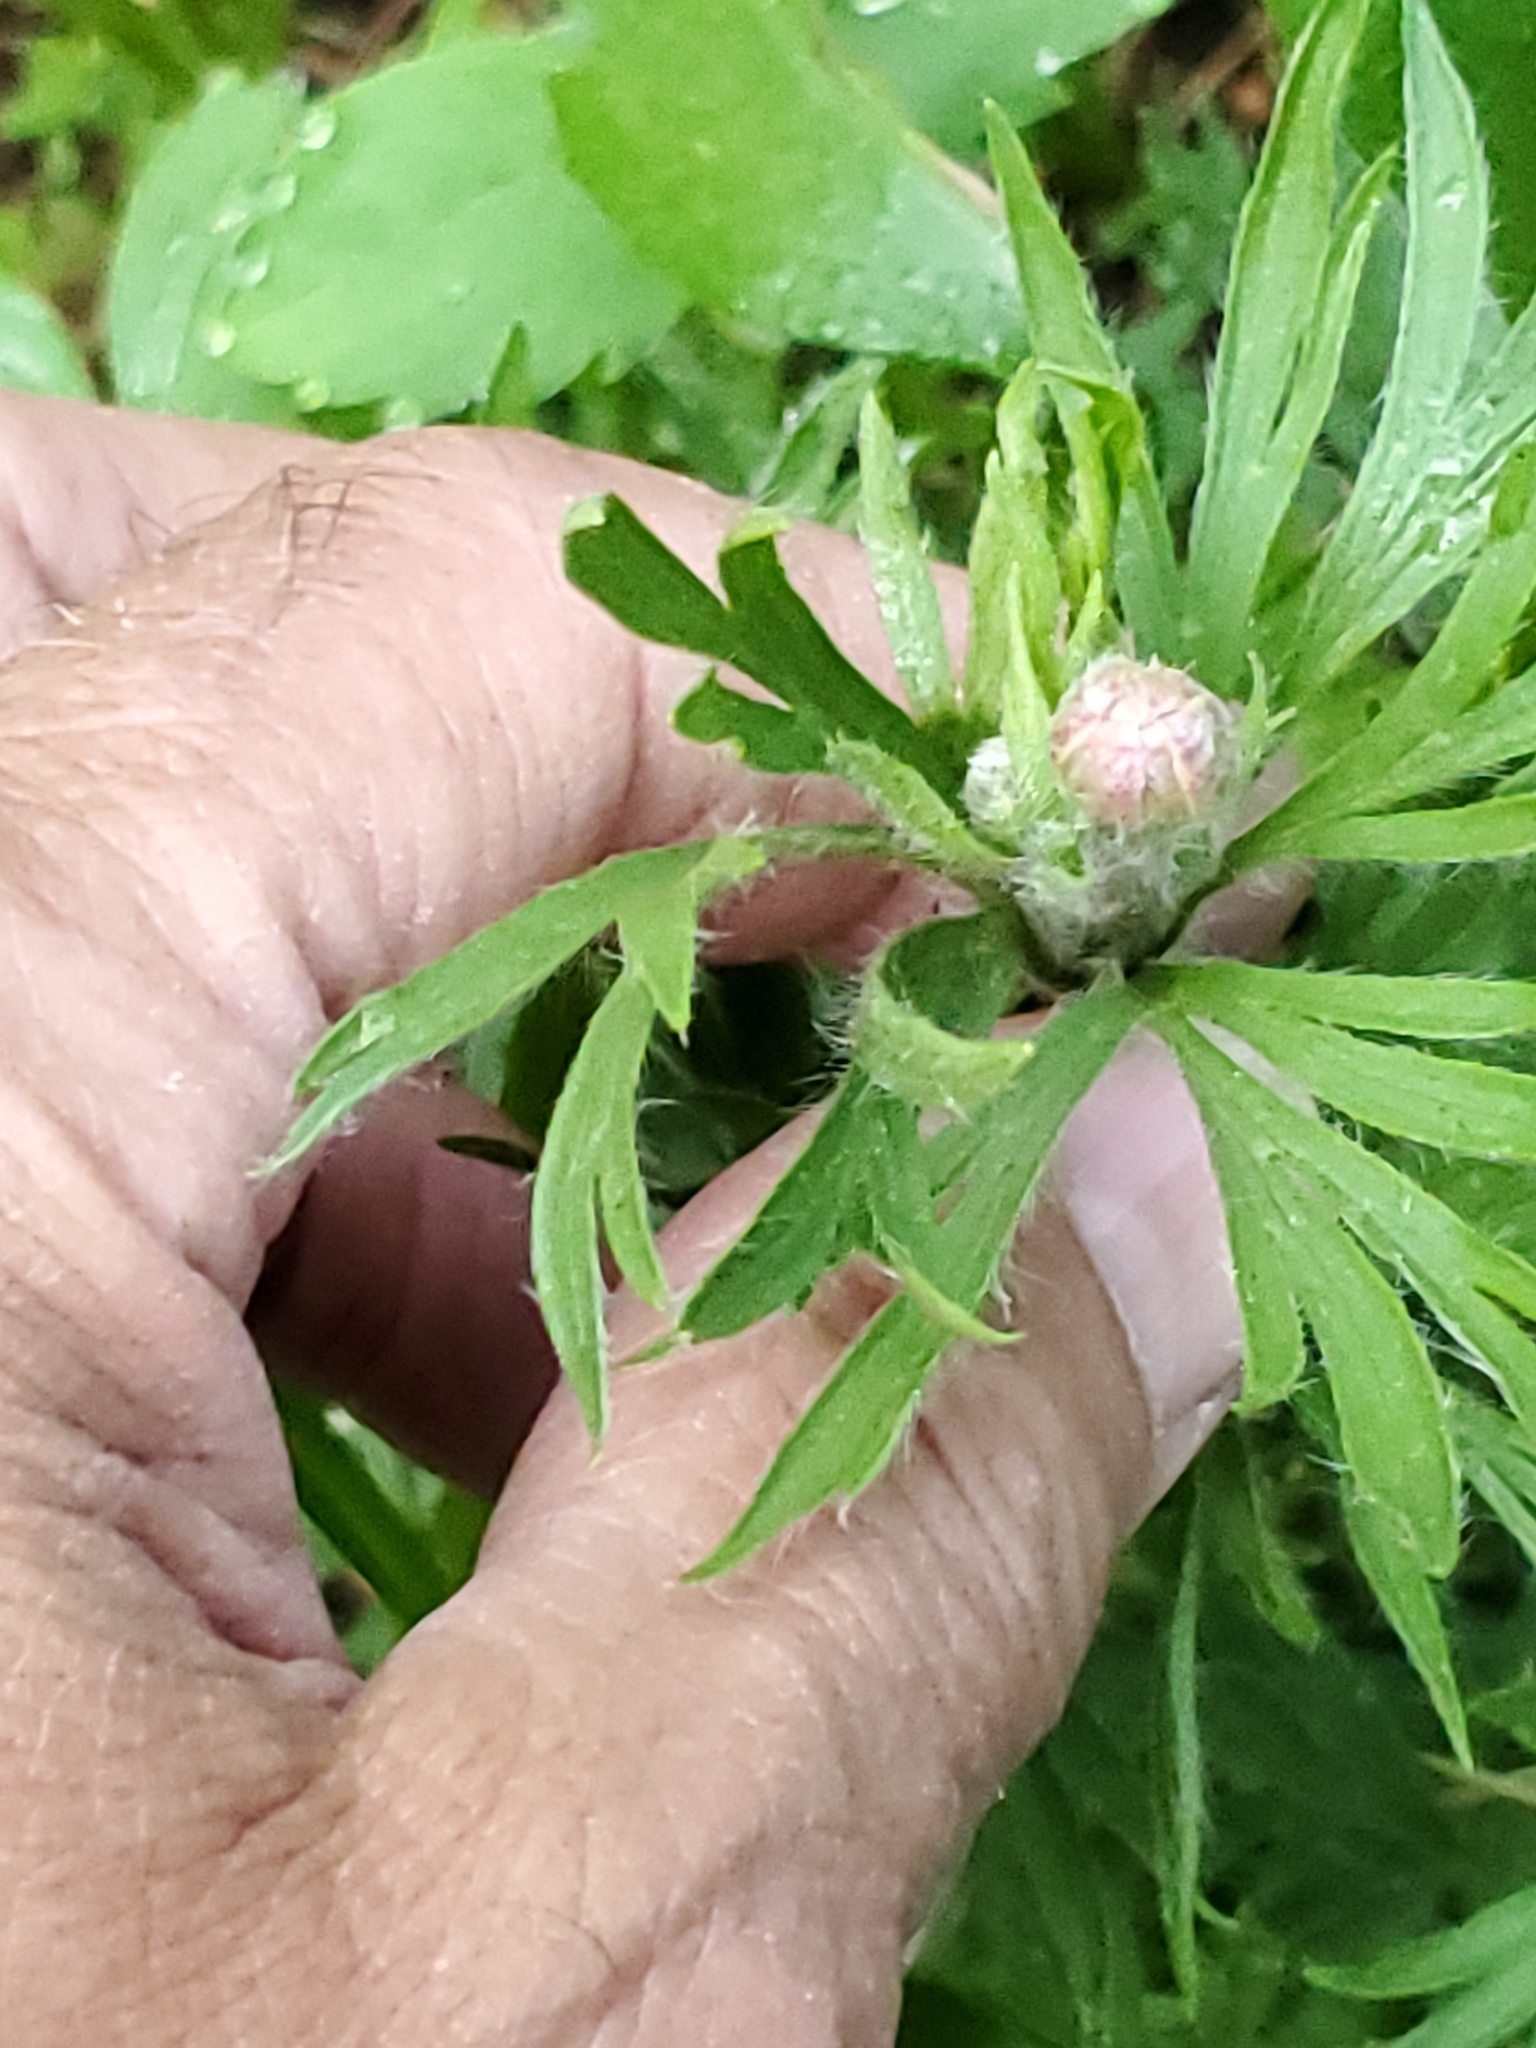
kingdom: Plantae
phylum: Tracheophyta
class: Magnoliopsida
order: Ranunculales
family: Ranunculaceae
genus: Anemone
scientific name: Anemone multifida
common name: Bird's-foot anemone
